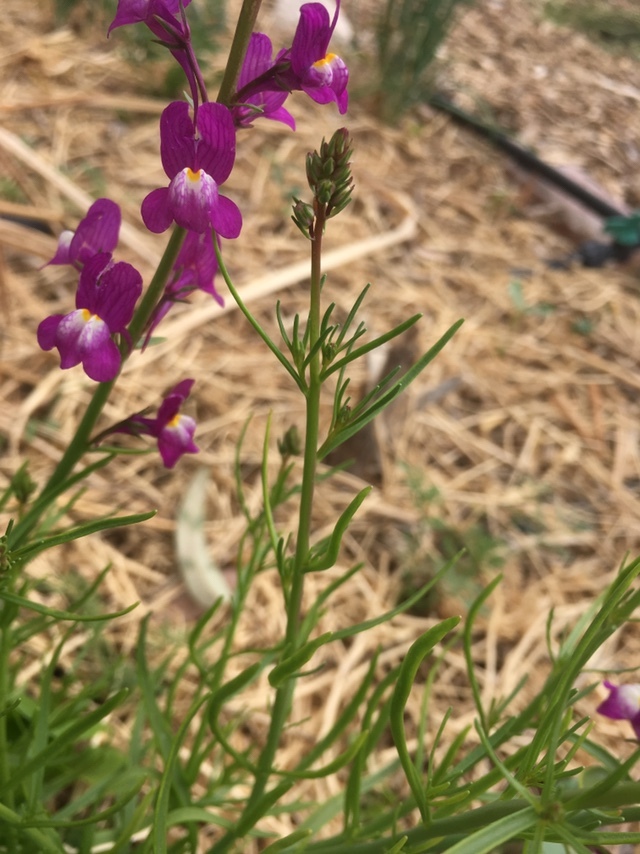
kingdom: Plantae
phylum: Tracheophyta
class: Magnoliopsida
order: Lamiales
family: Plantaginaceae
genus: Linaria
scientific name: Linaria maroccana
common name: Moroccan toadflax
